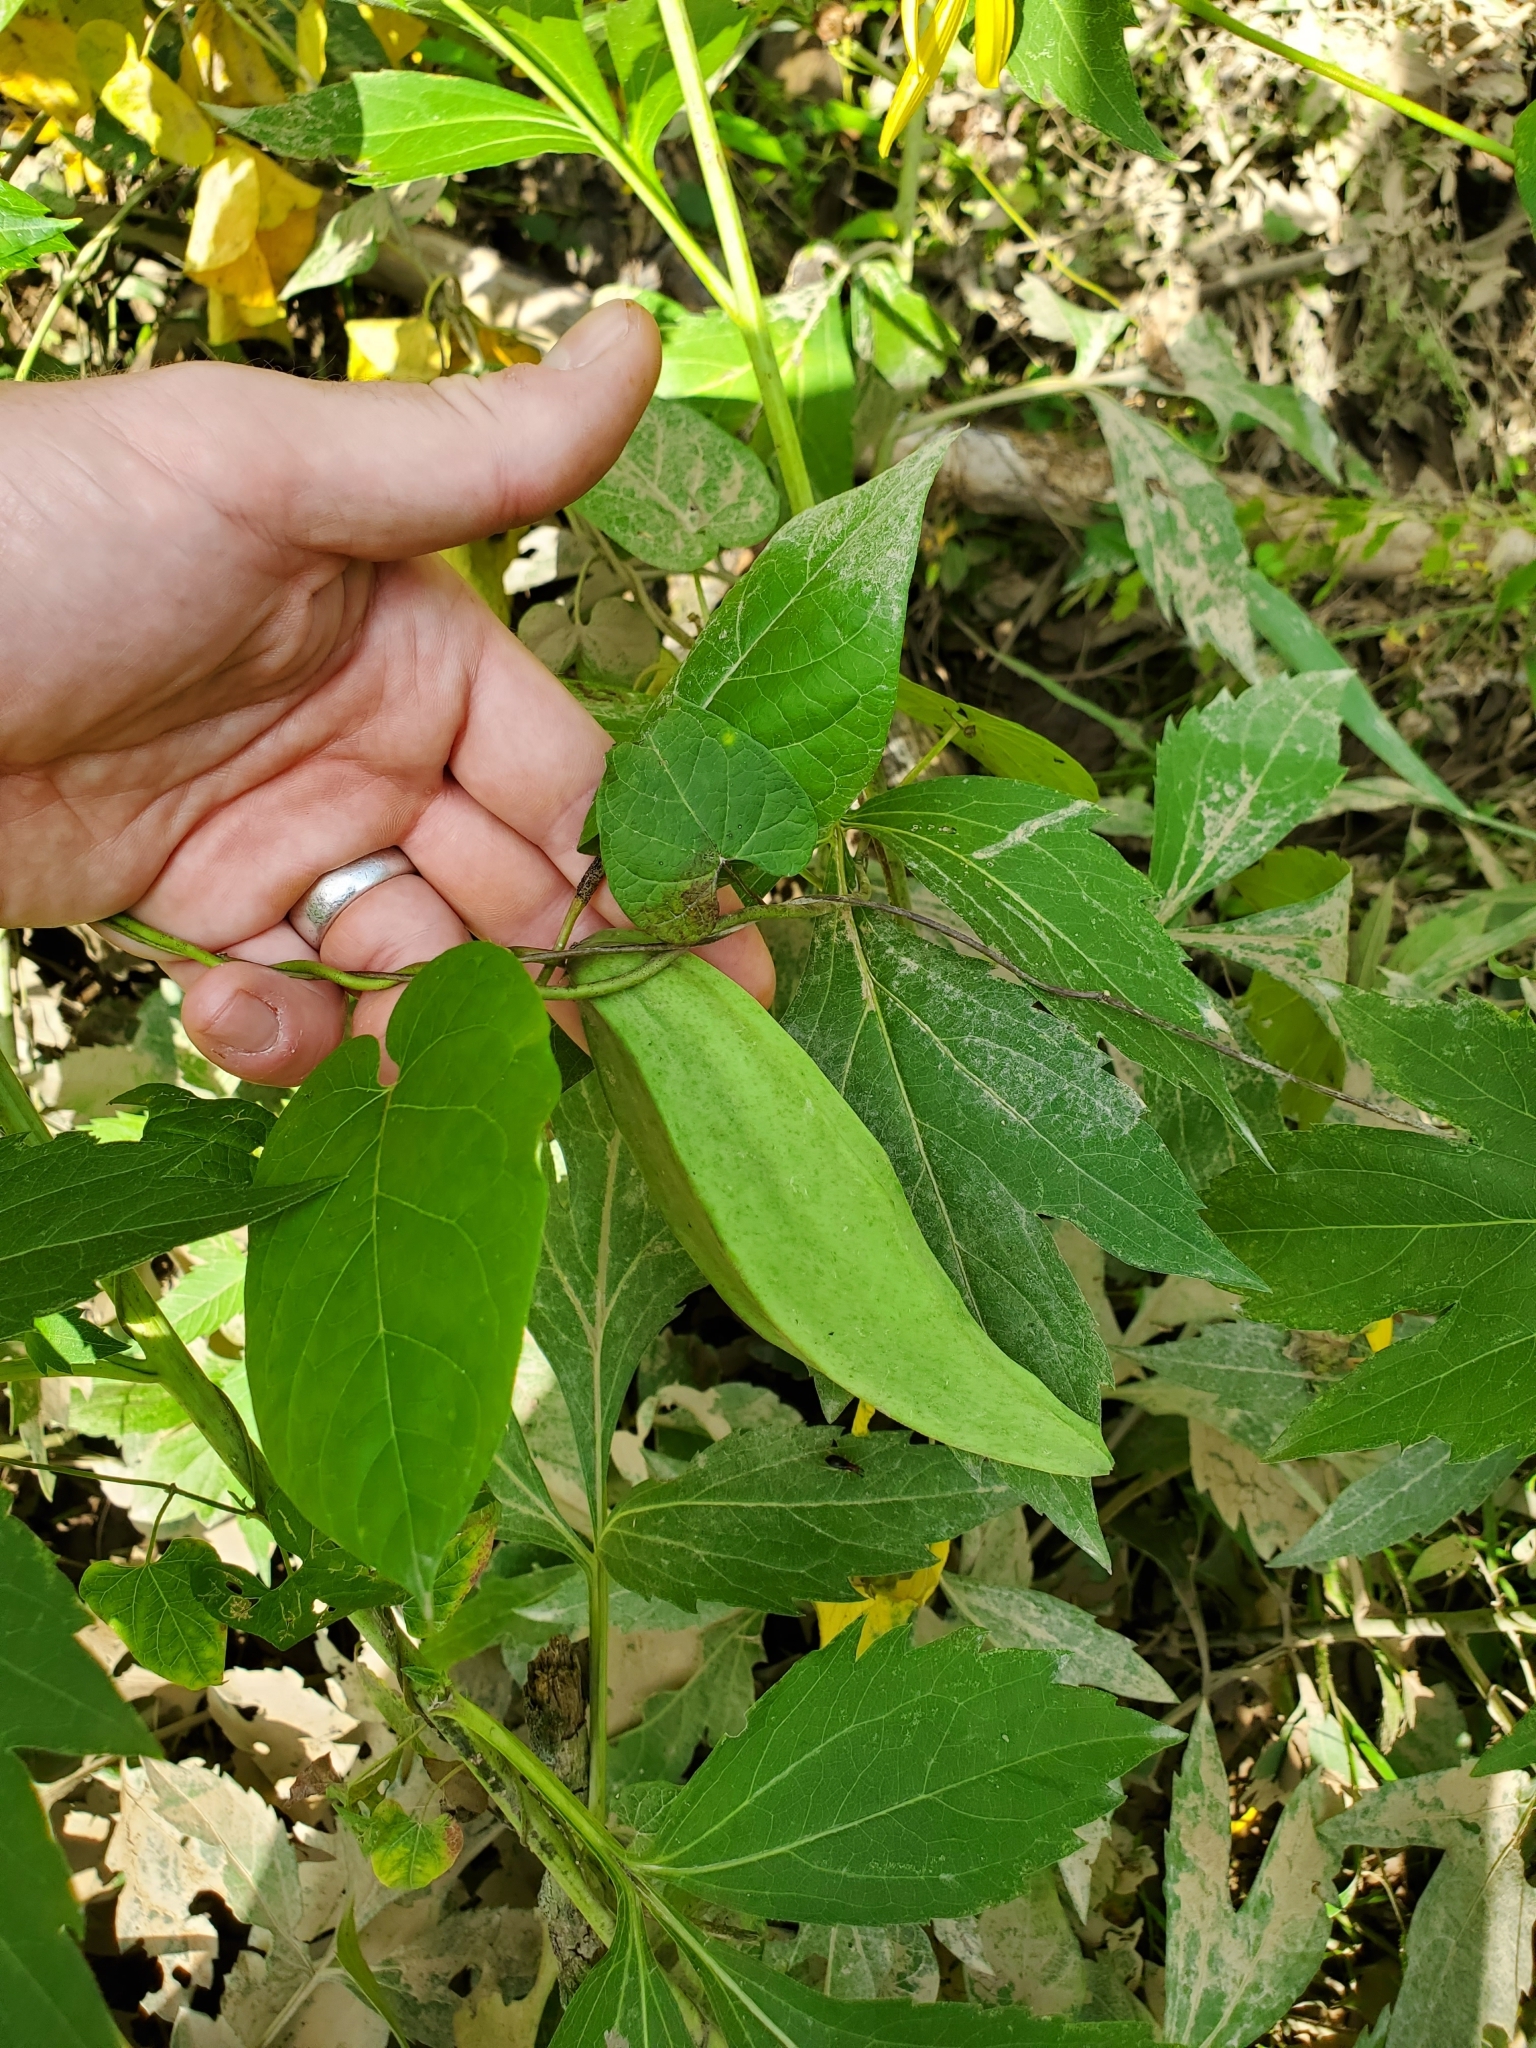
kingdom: Plantae
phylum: Tracheophyta
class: Magnoliopsida
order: Gentianales
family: Apocynaceae
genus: Gonolobus
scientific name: Gonolobus suberosus
